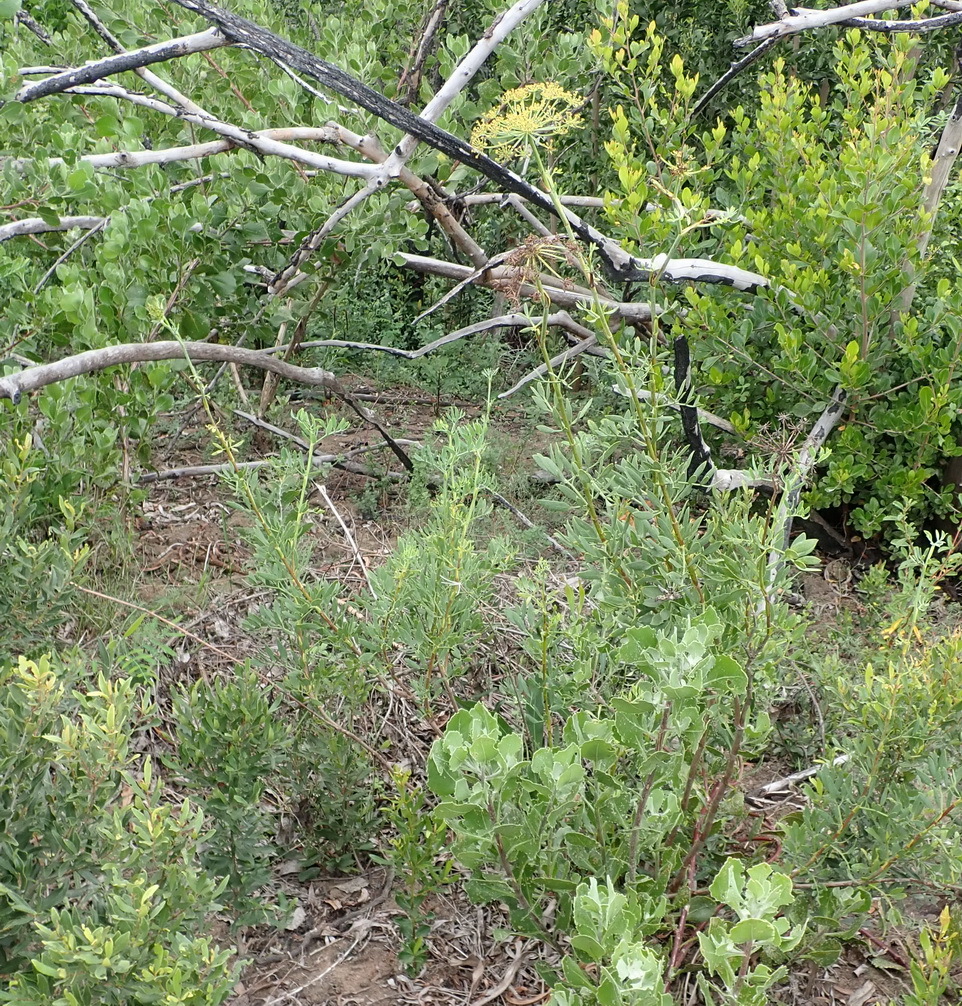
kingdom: Plantae
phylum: Tracheophyta
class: Magnoliopsida
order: Apiales
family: Apiaceae
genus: Notobubon
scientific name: Notobubon laevigatum
